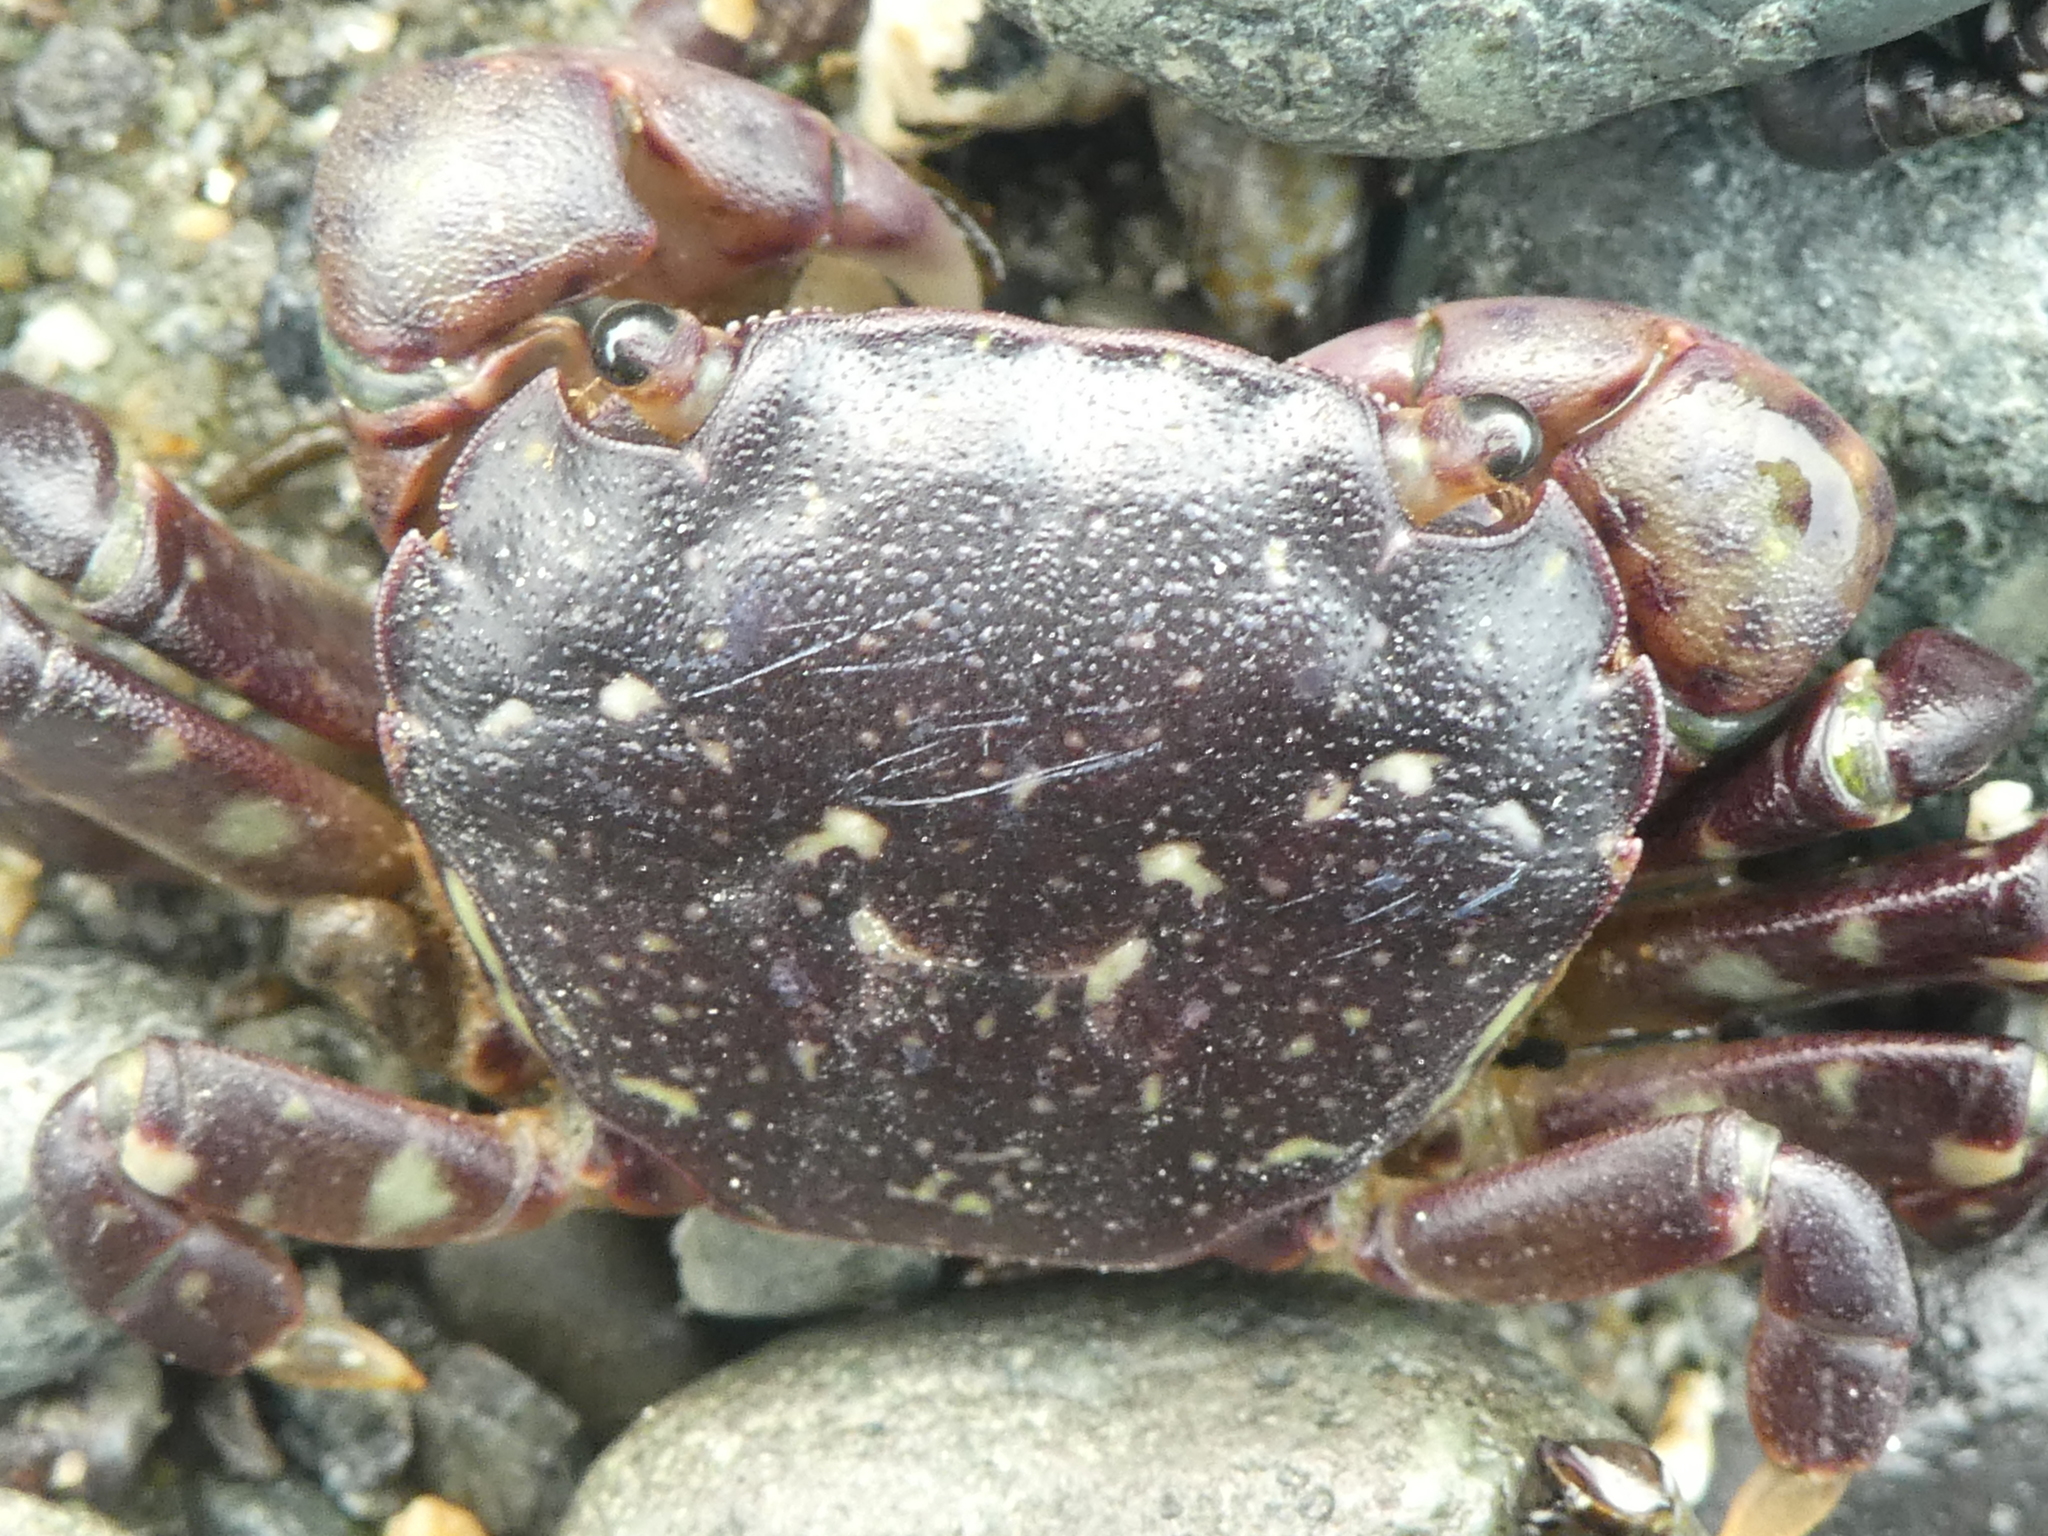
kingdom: Animalia
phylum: Arthropoda
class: Malacostraca
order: Decapoda
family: Varunidae
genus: Hemigrapsus
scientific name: Hemigrapsus nudus
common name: Purple shore crab
